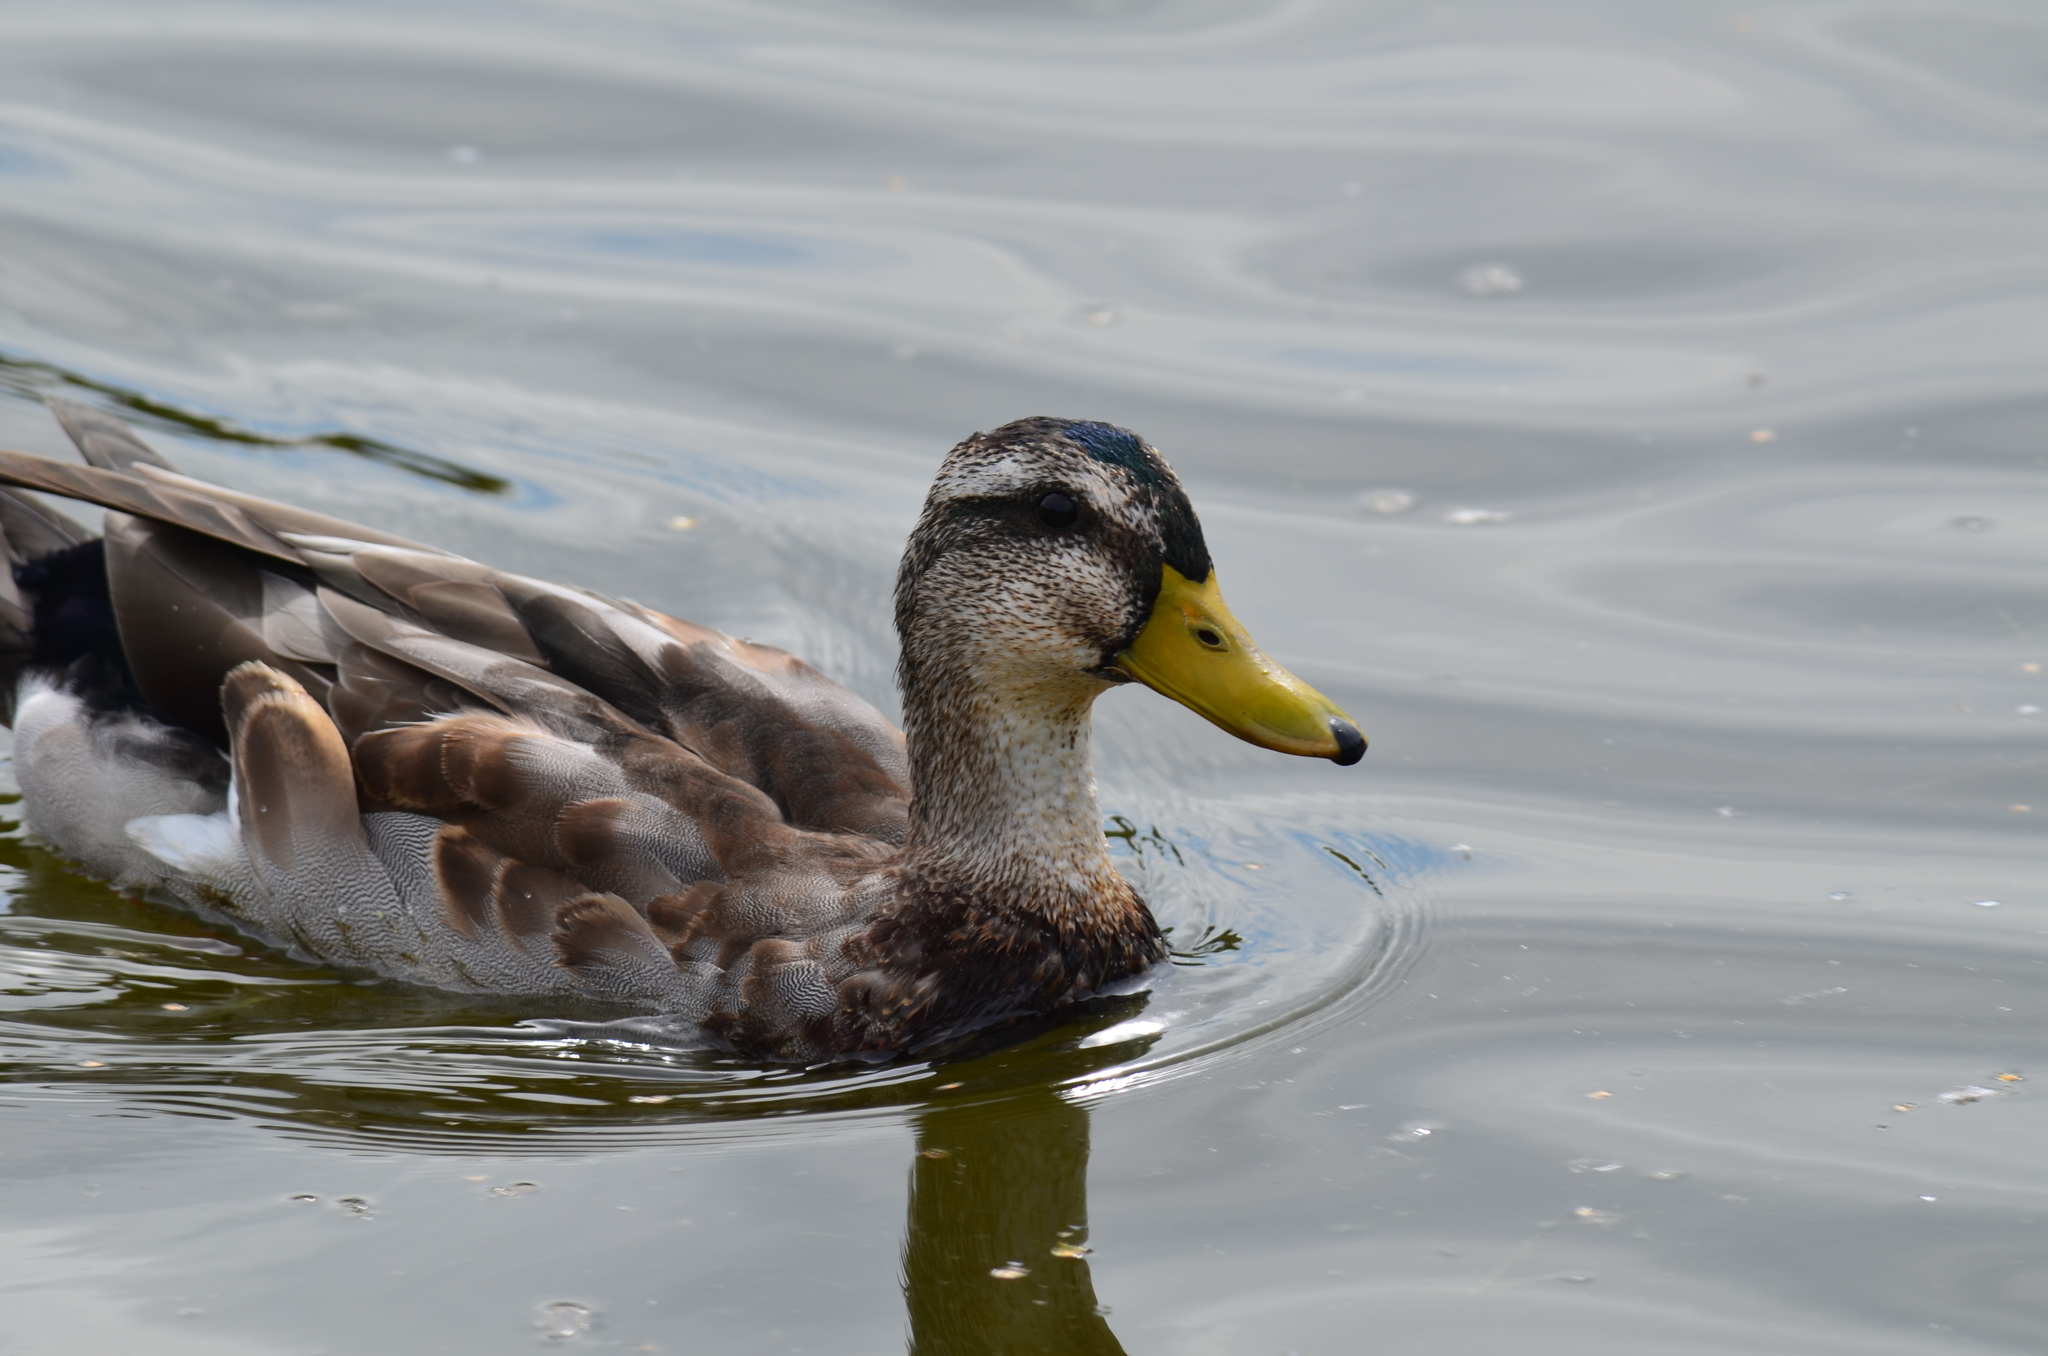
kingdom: Animalia
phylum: Chordata
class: Aves
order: Anseriformes
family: Anatidae
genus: Anas
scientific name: Anas platyrhynchos
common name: Mallard
